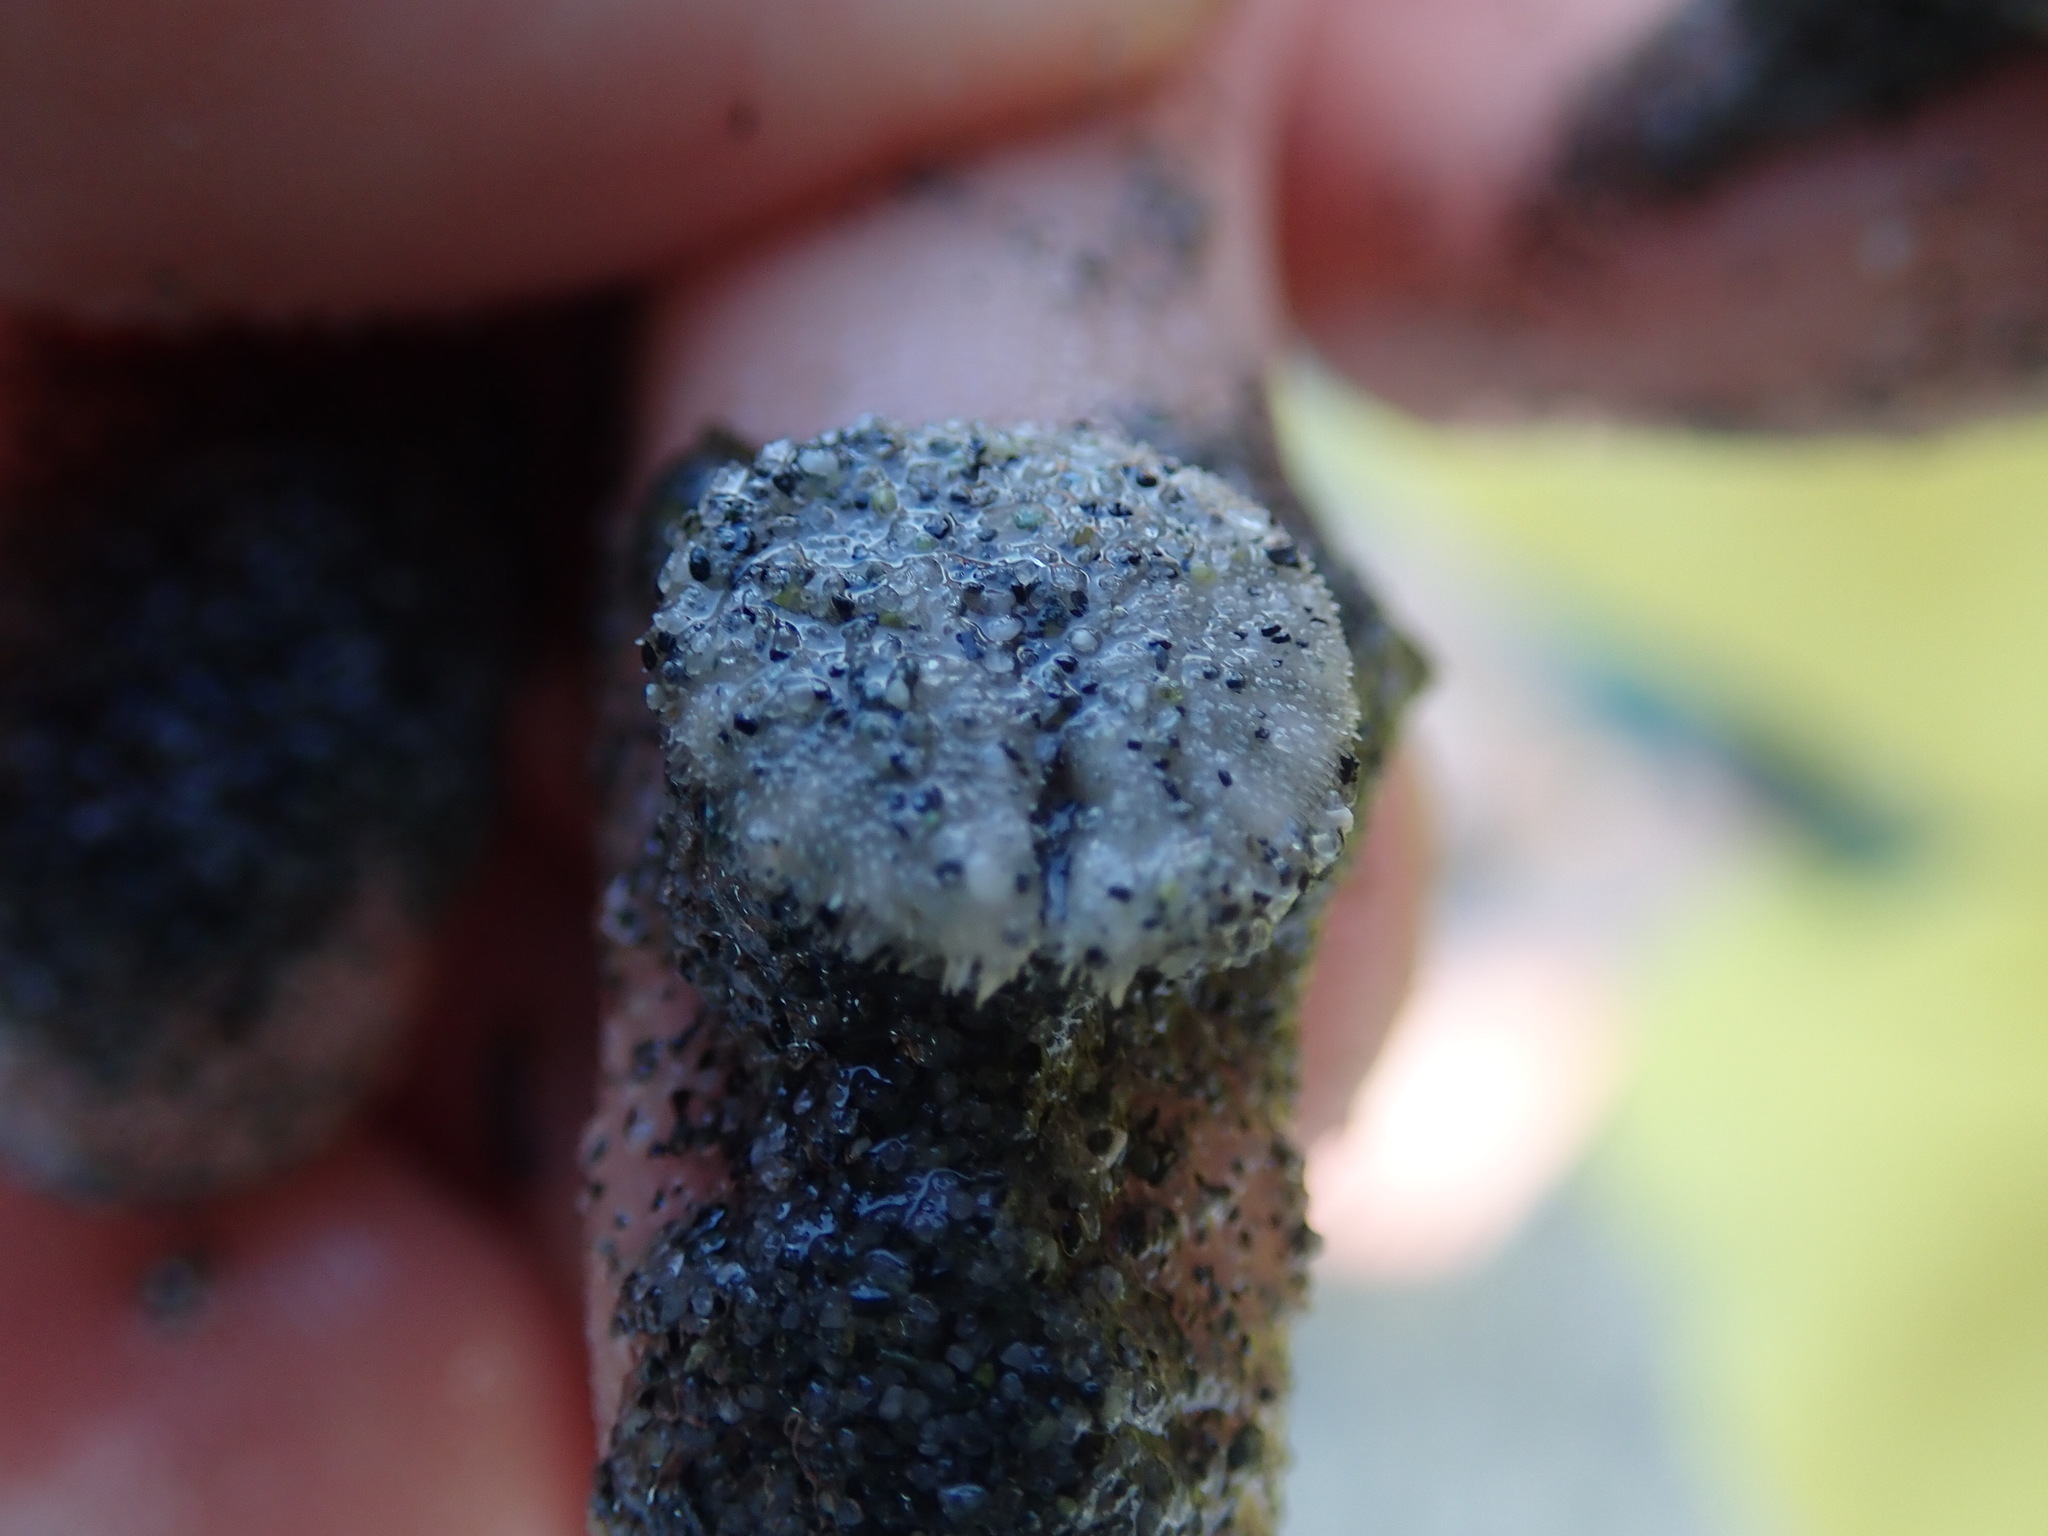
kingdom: Animalia
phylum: Echinodermata
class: Echinoidea
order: Echinolampadacea
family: Dendrasteridae
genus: Dendraster
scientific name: Dendraster excentricus
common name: Eccentric sand dollar sea urchin
